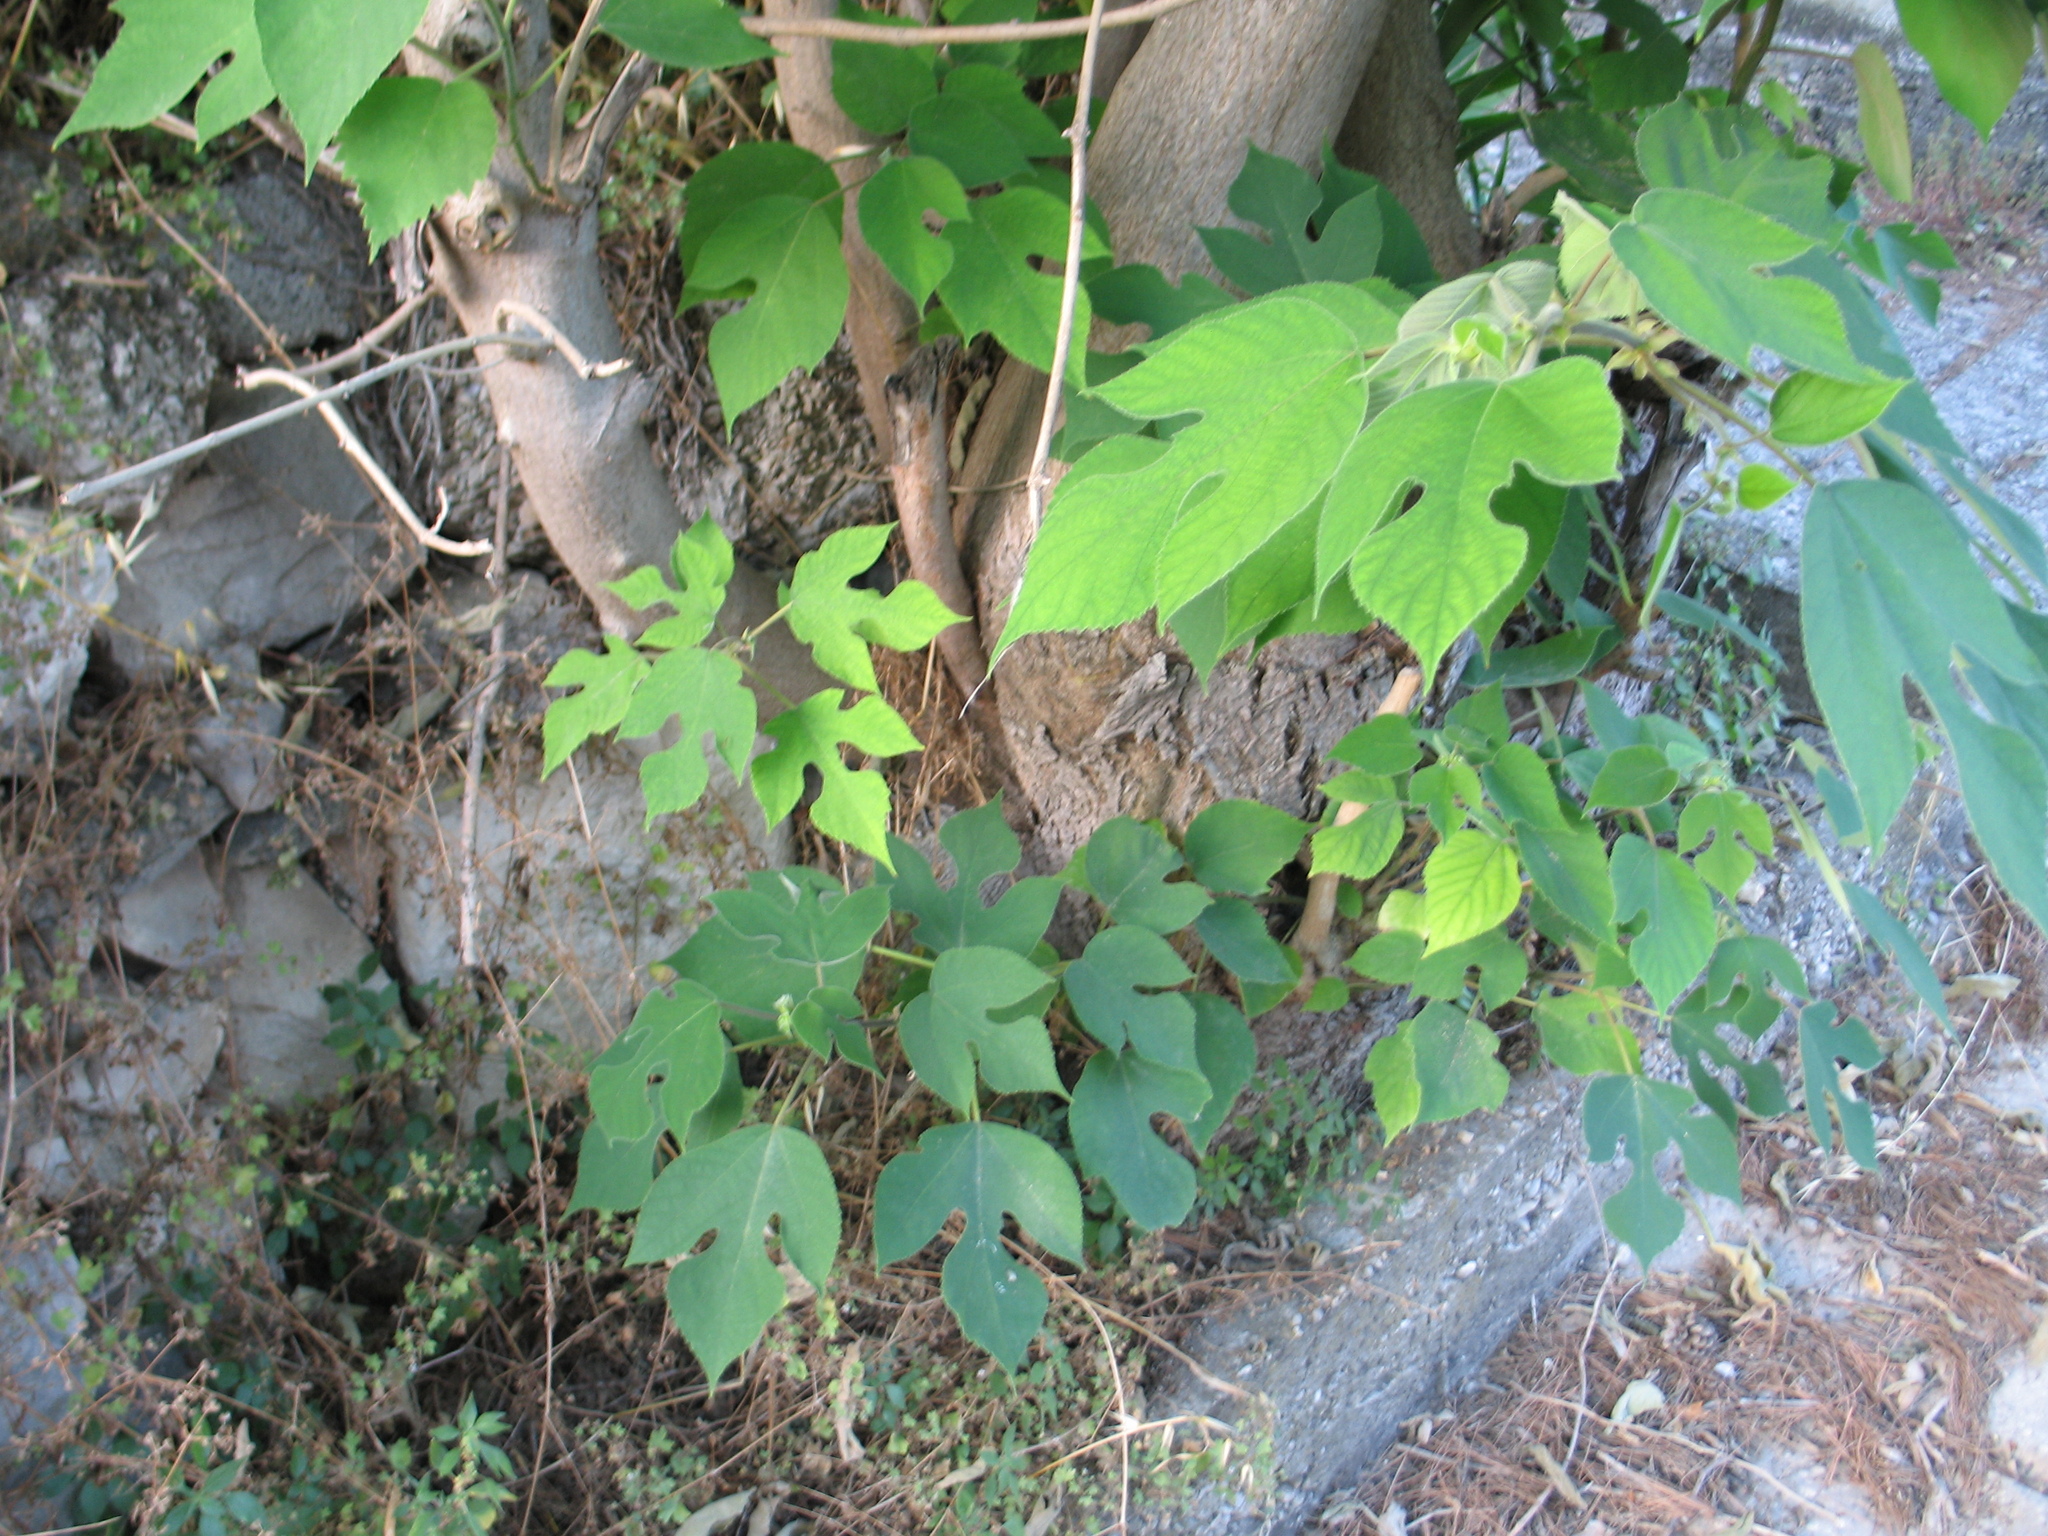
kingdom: Plantae
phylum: Tracheophyta
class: Magnoliopsida
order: Rosales
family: Moraceae
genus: Broussonetia
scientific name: Broussonetia papyrifera
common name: Paper mulberry
